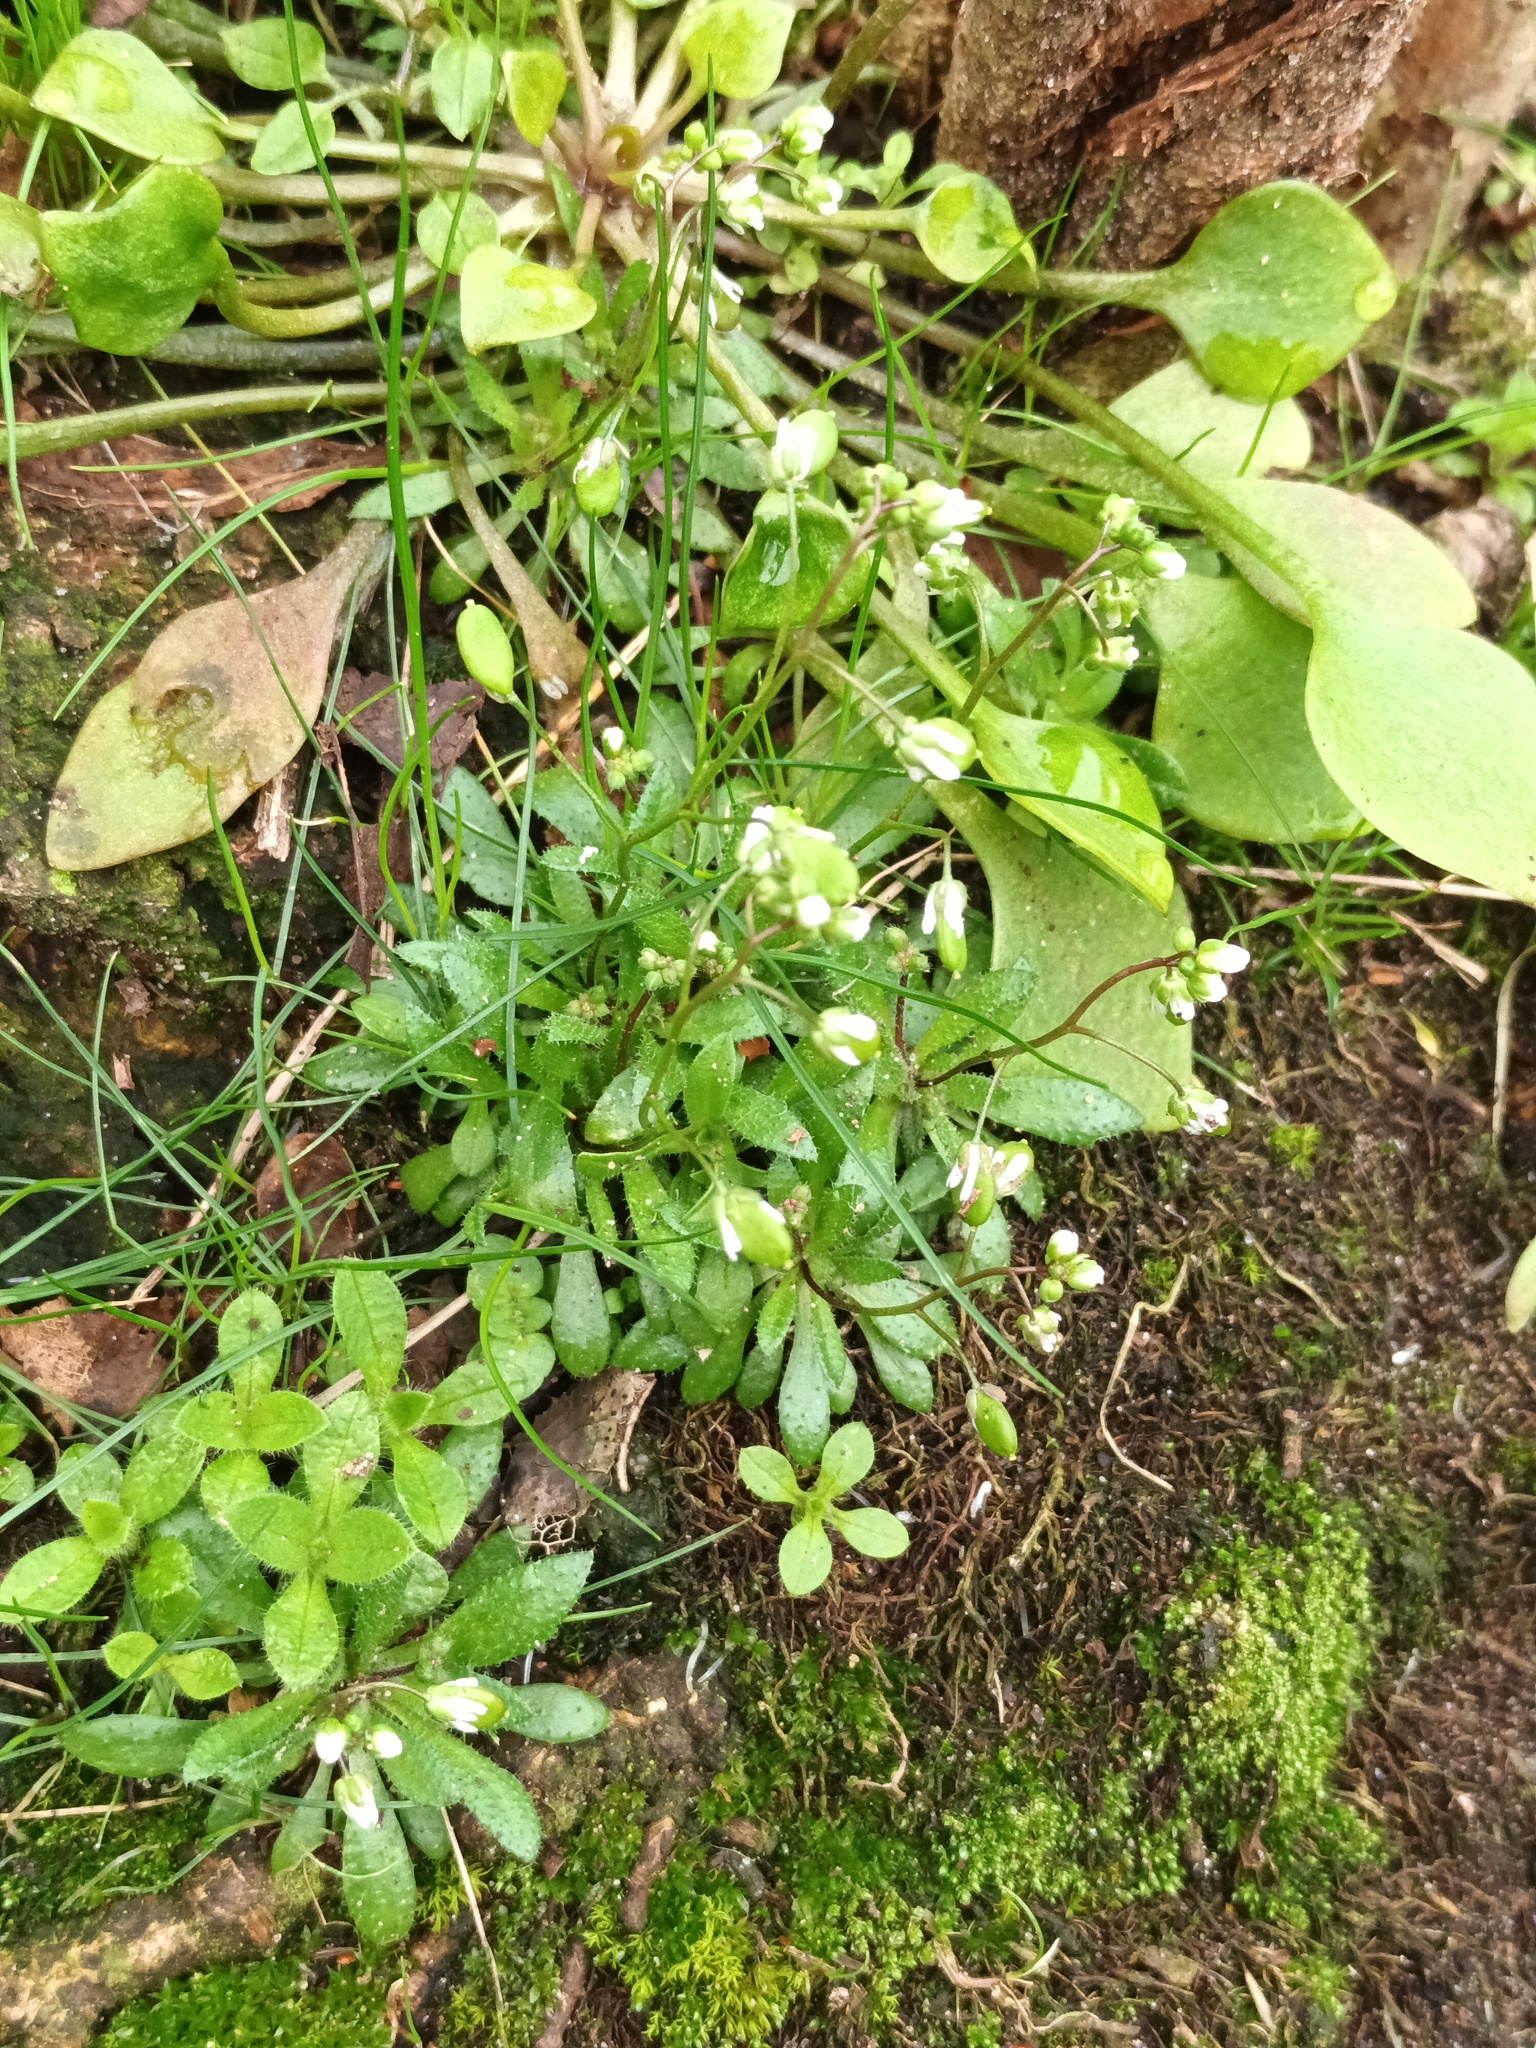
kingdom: Plantae
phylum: Tracheophyta
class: Magnoliopsida
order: Brassicales
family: Brassicaceae
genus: Draba
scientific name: Draba verna
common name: Spring draba
